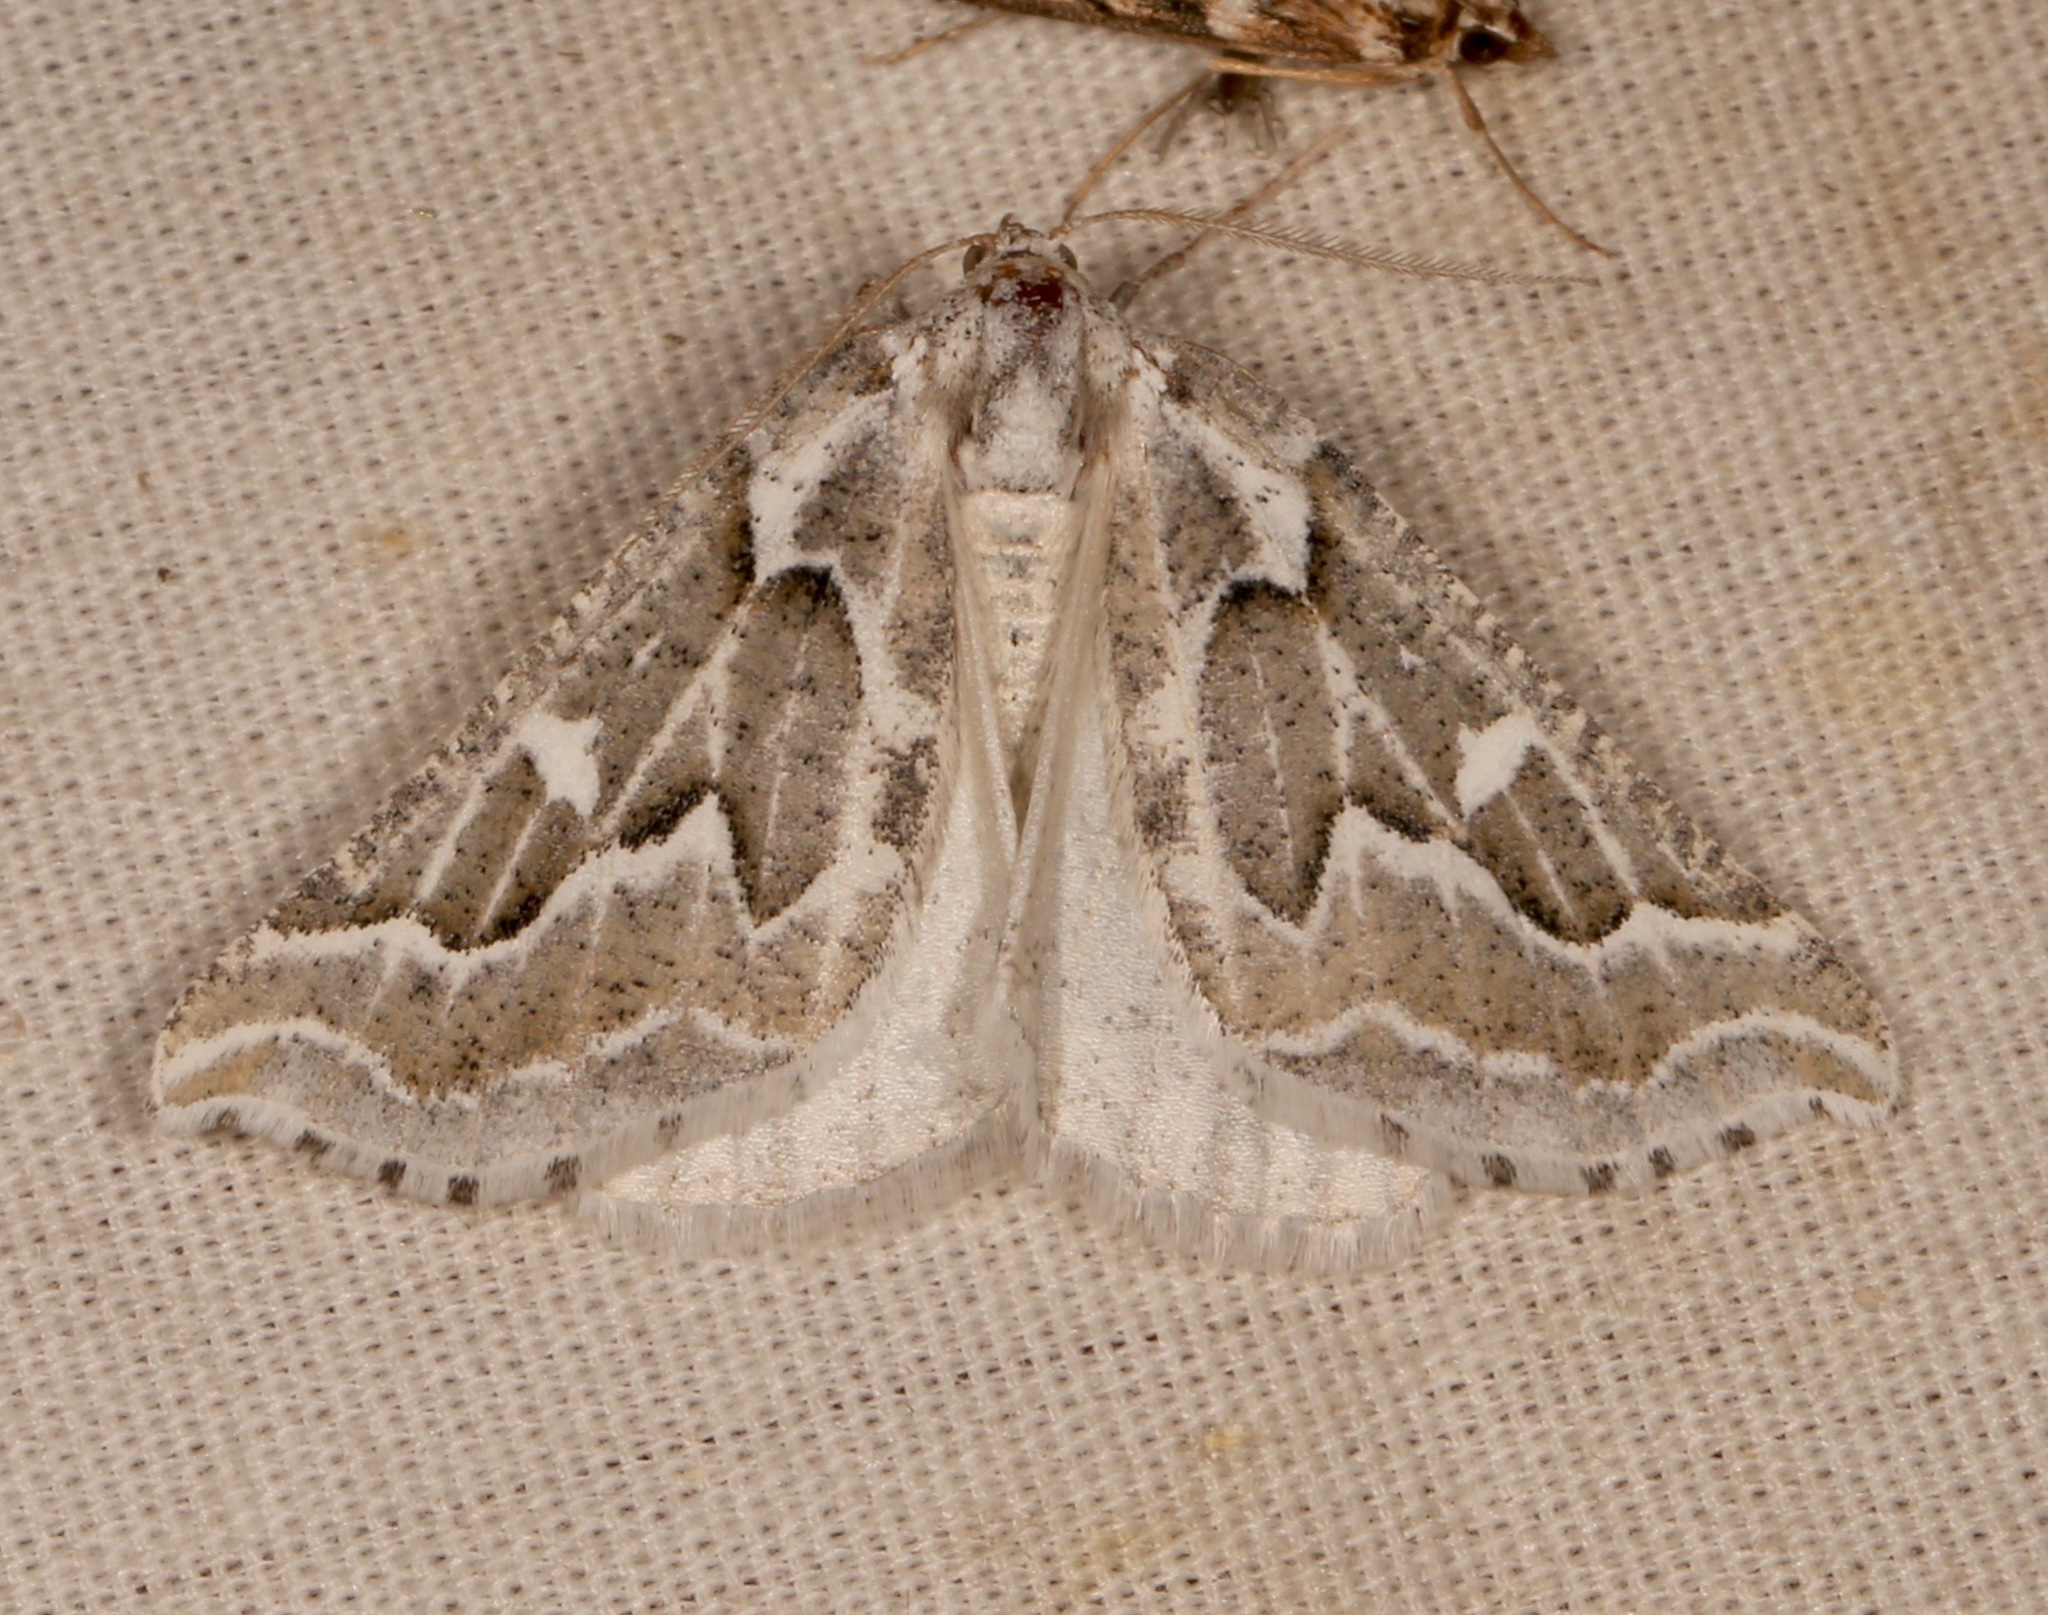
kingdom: Animalia
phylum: Arthropoda
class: Insecta
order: Lepidoptera
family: Geometridae
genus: Plataea
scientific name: Plataea trilinearia
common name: Sagebrush girdle moth
